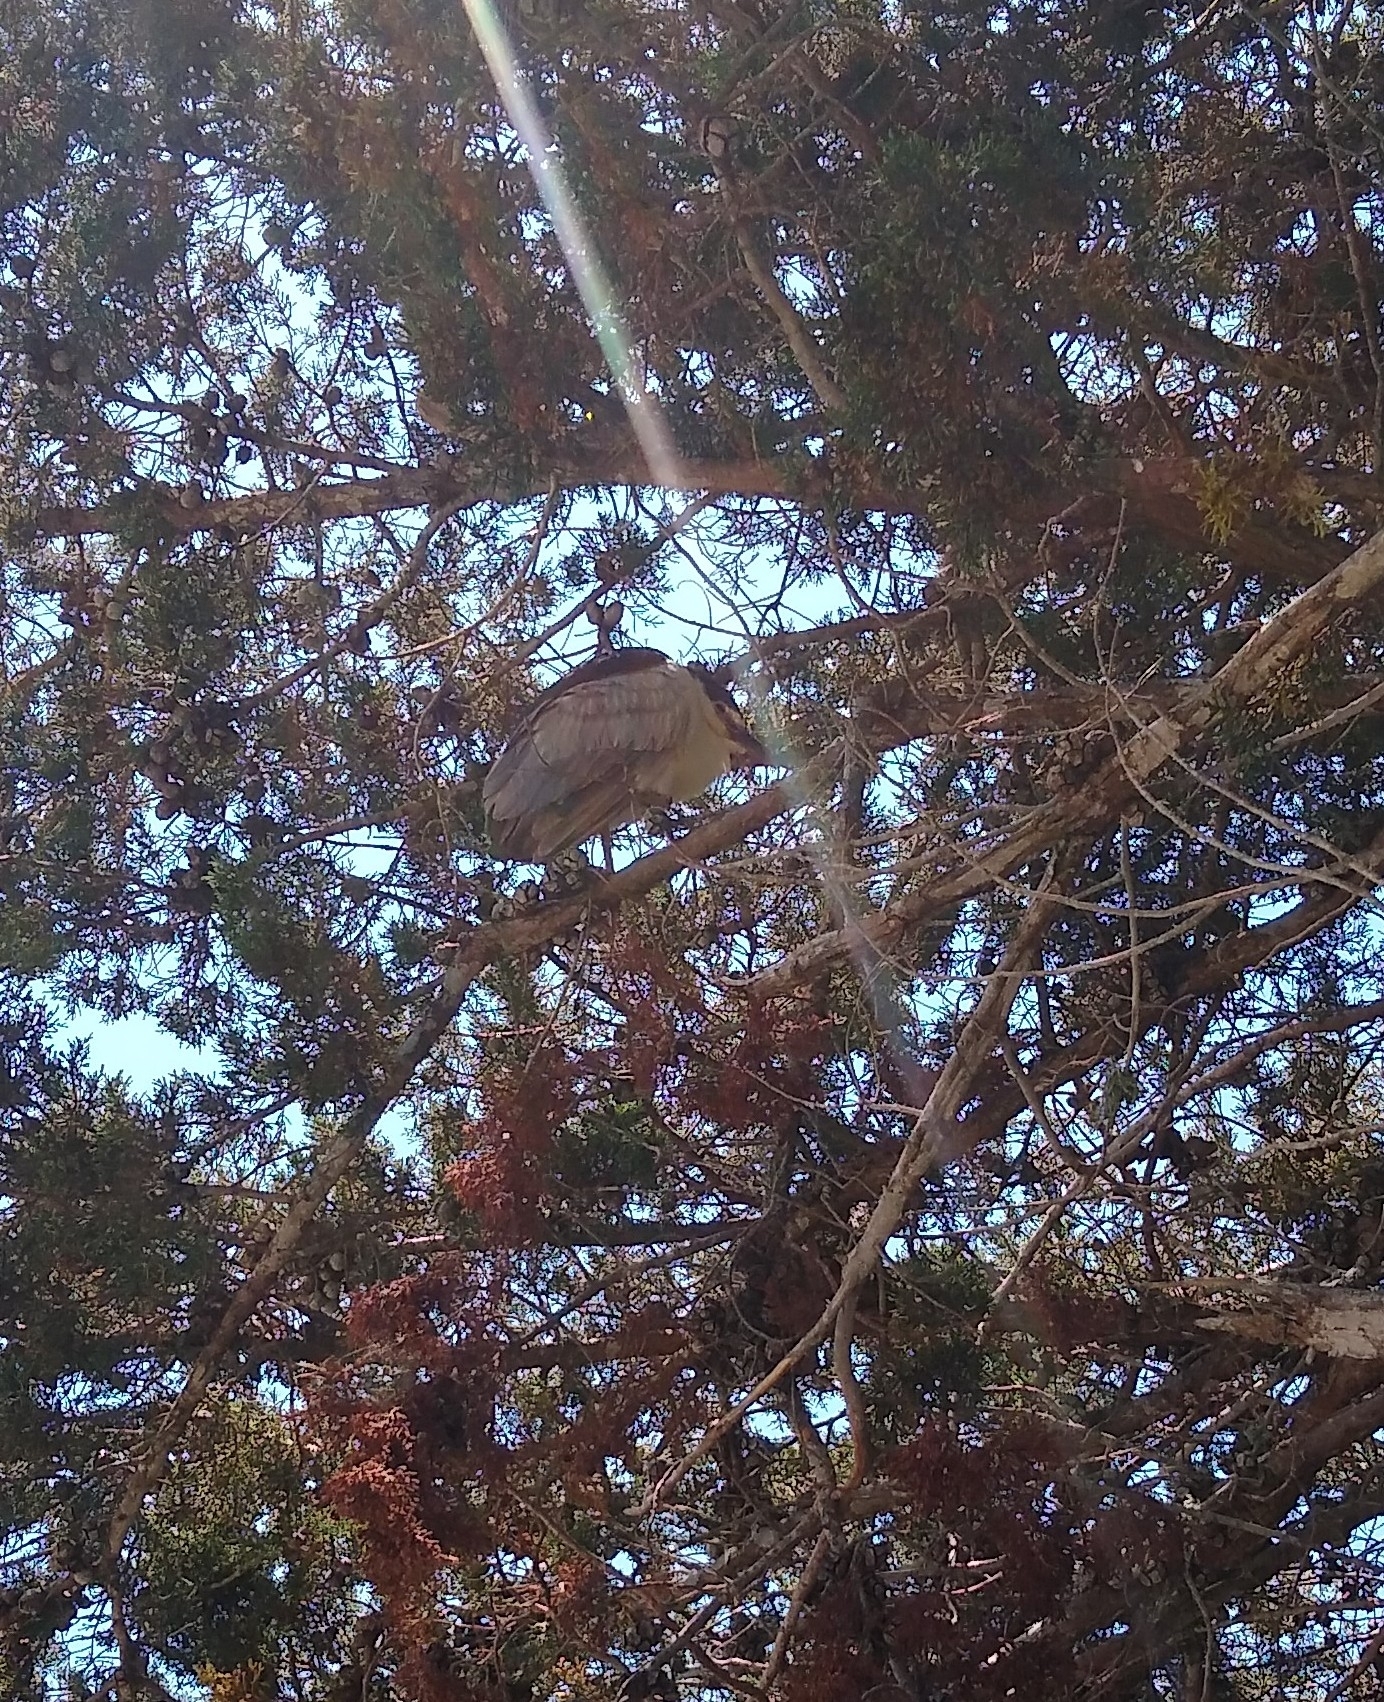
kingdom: Animalia
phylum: Chordata
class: Aves
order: Pelecaniformes
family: Ardeidae
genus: Nycticorax
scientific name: Nycticorax nycticorax
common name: Black-crowned night heron
